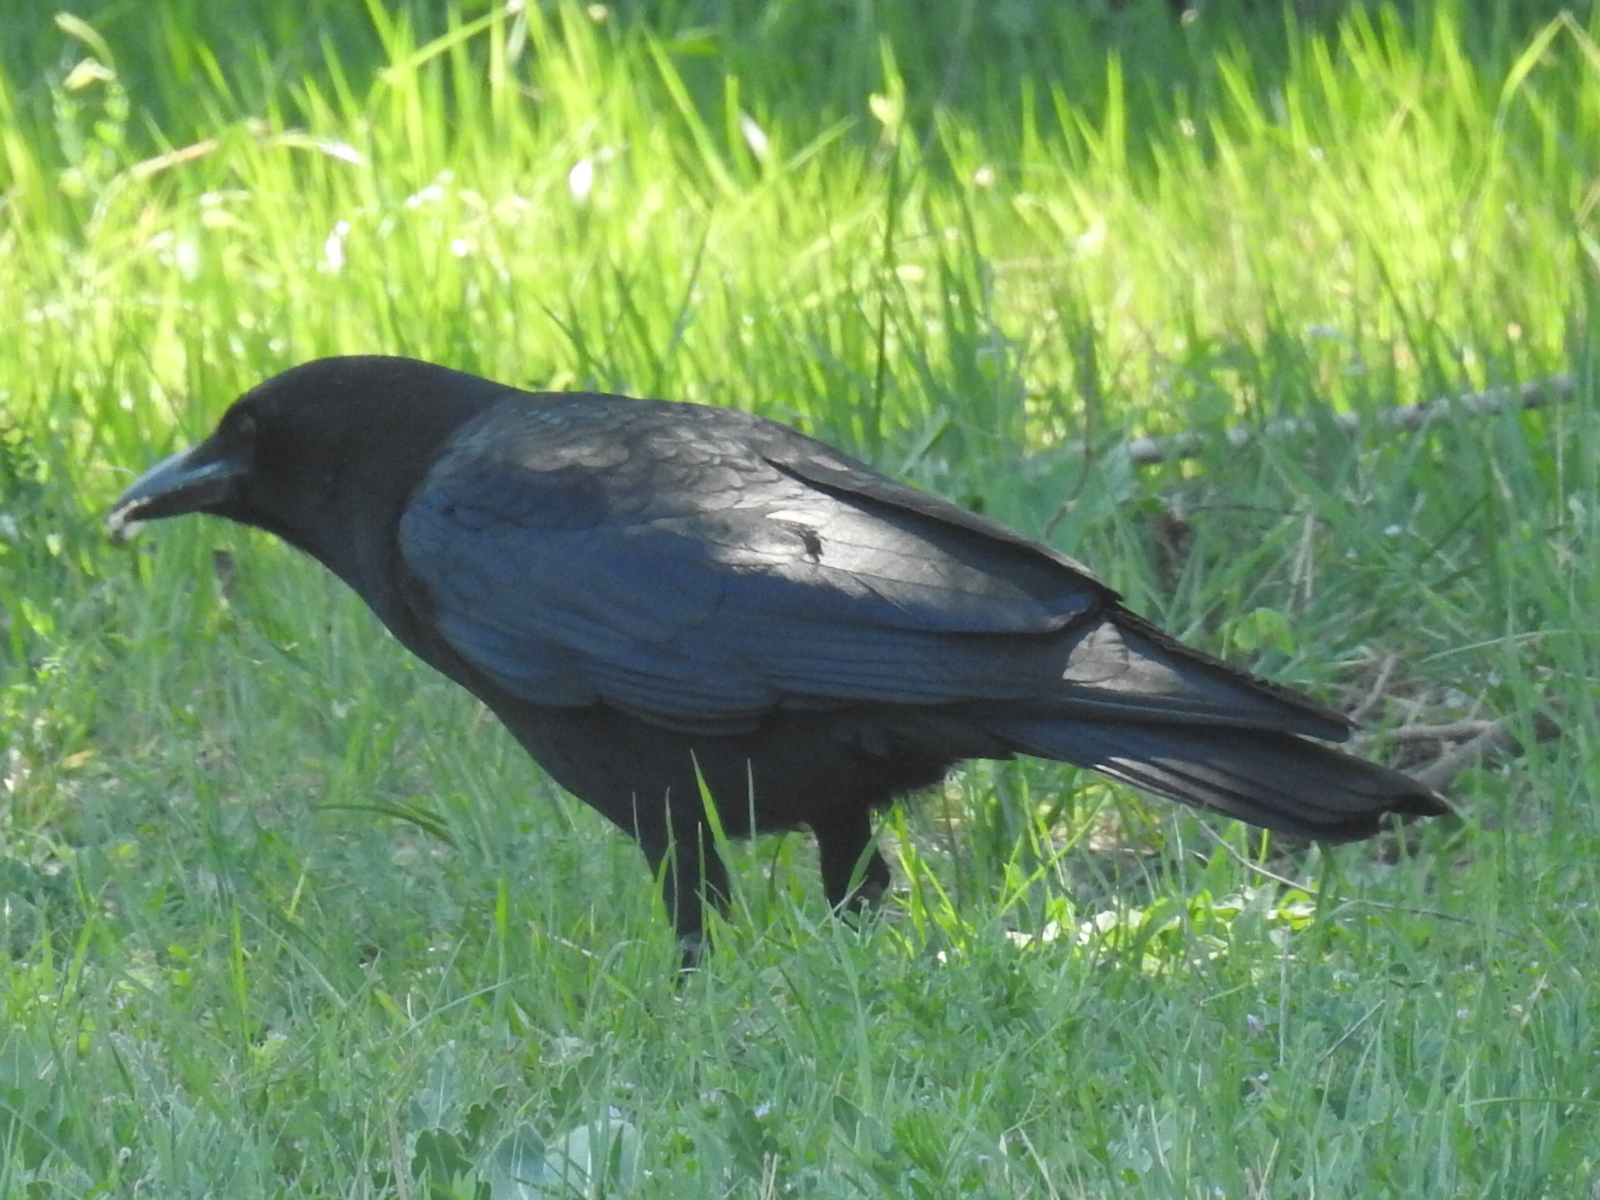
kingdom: Animalia
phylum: Chordata
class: Aves
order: Passeriformes
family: Corvidae
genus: Corvus
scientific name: Corvus brachyrhynchos
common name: American crow
